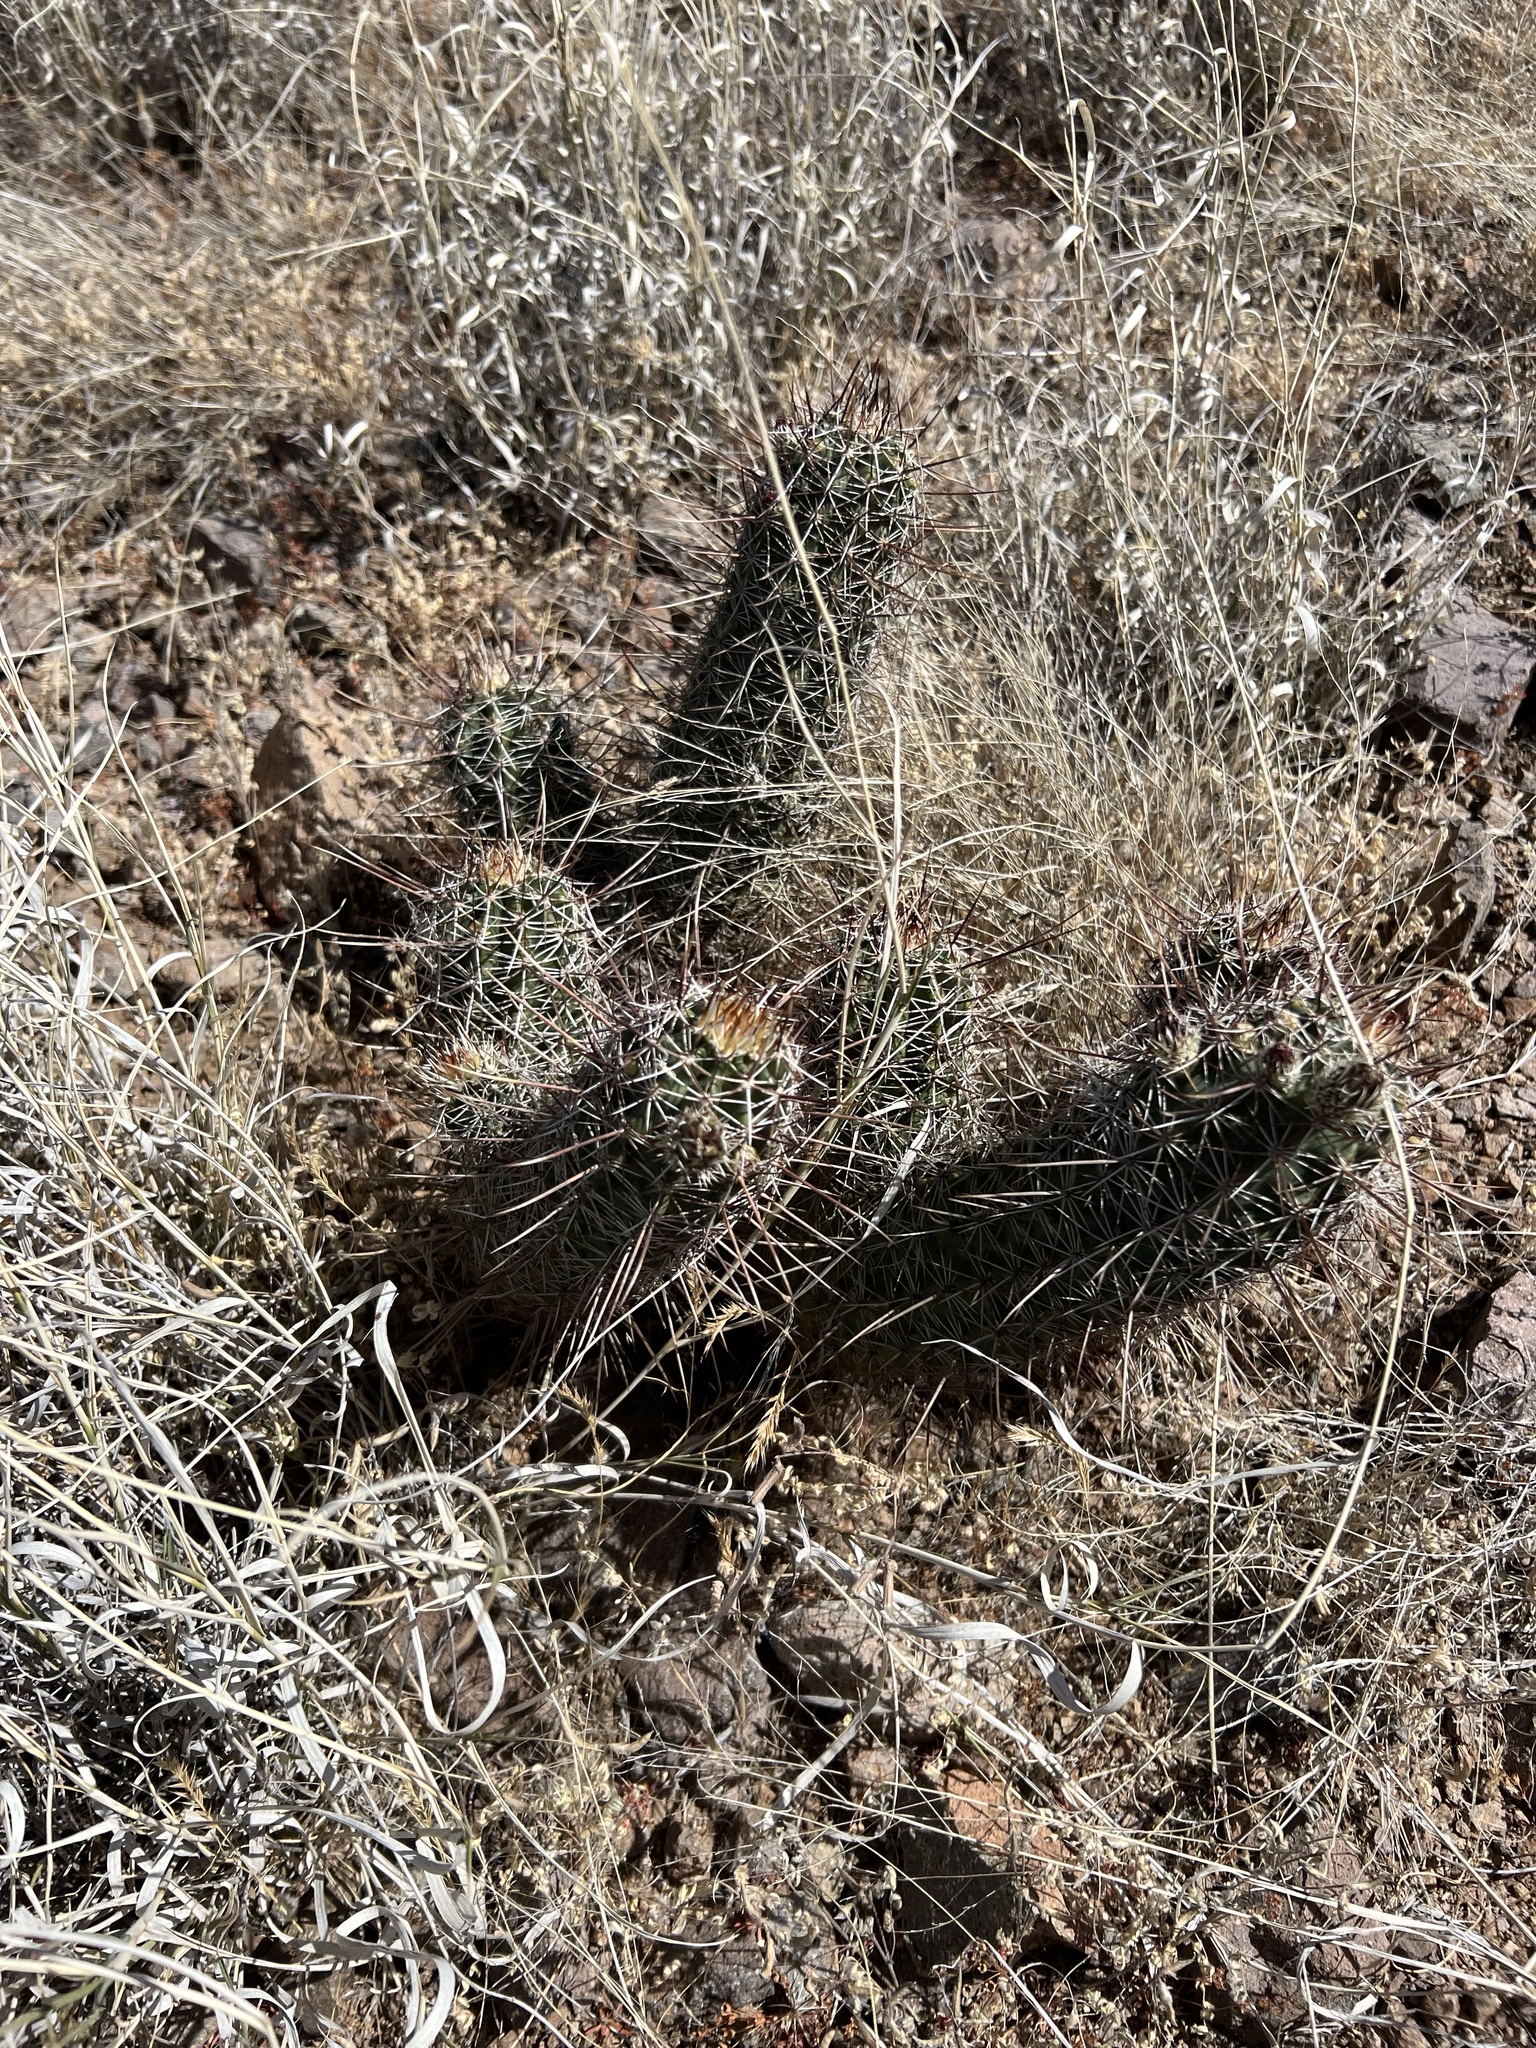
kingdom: Plantae
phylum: Tracheophyta
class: Magnoliopsida
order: Caryophyllales
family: Cactaceae
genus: Echinocereus
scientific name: Echinocereus fendleri
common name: Fendler's hedgehog cactus
